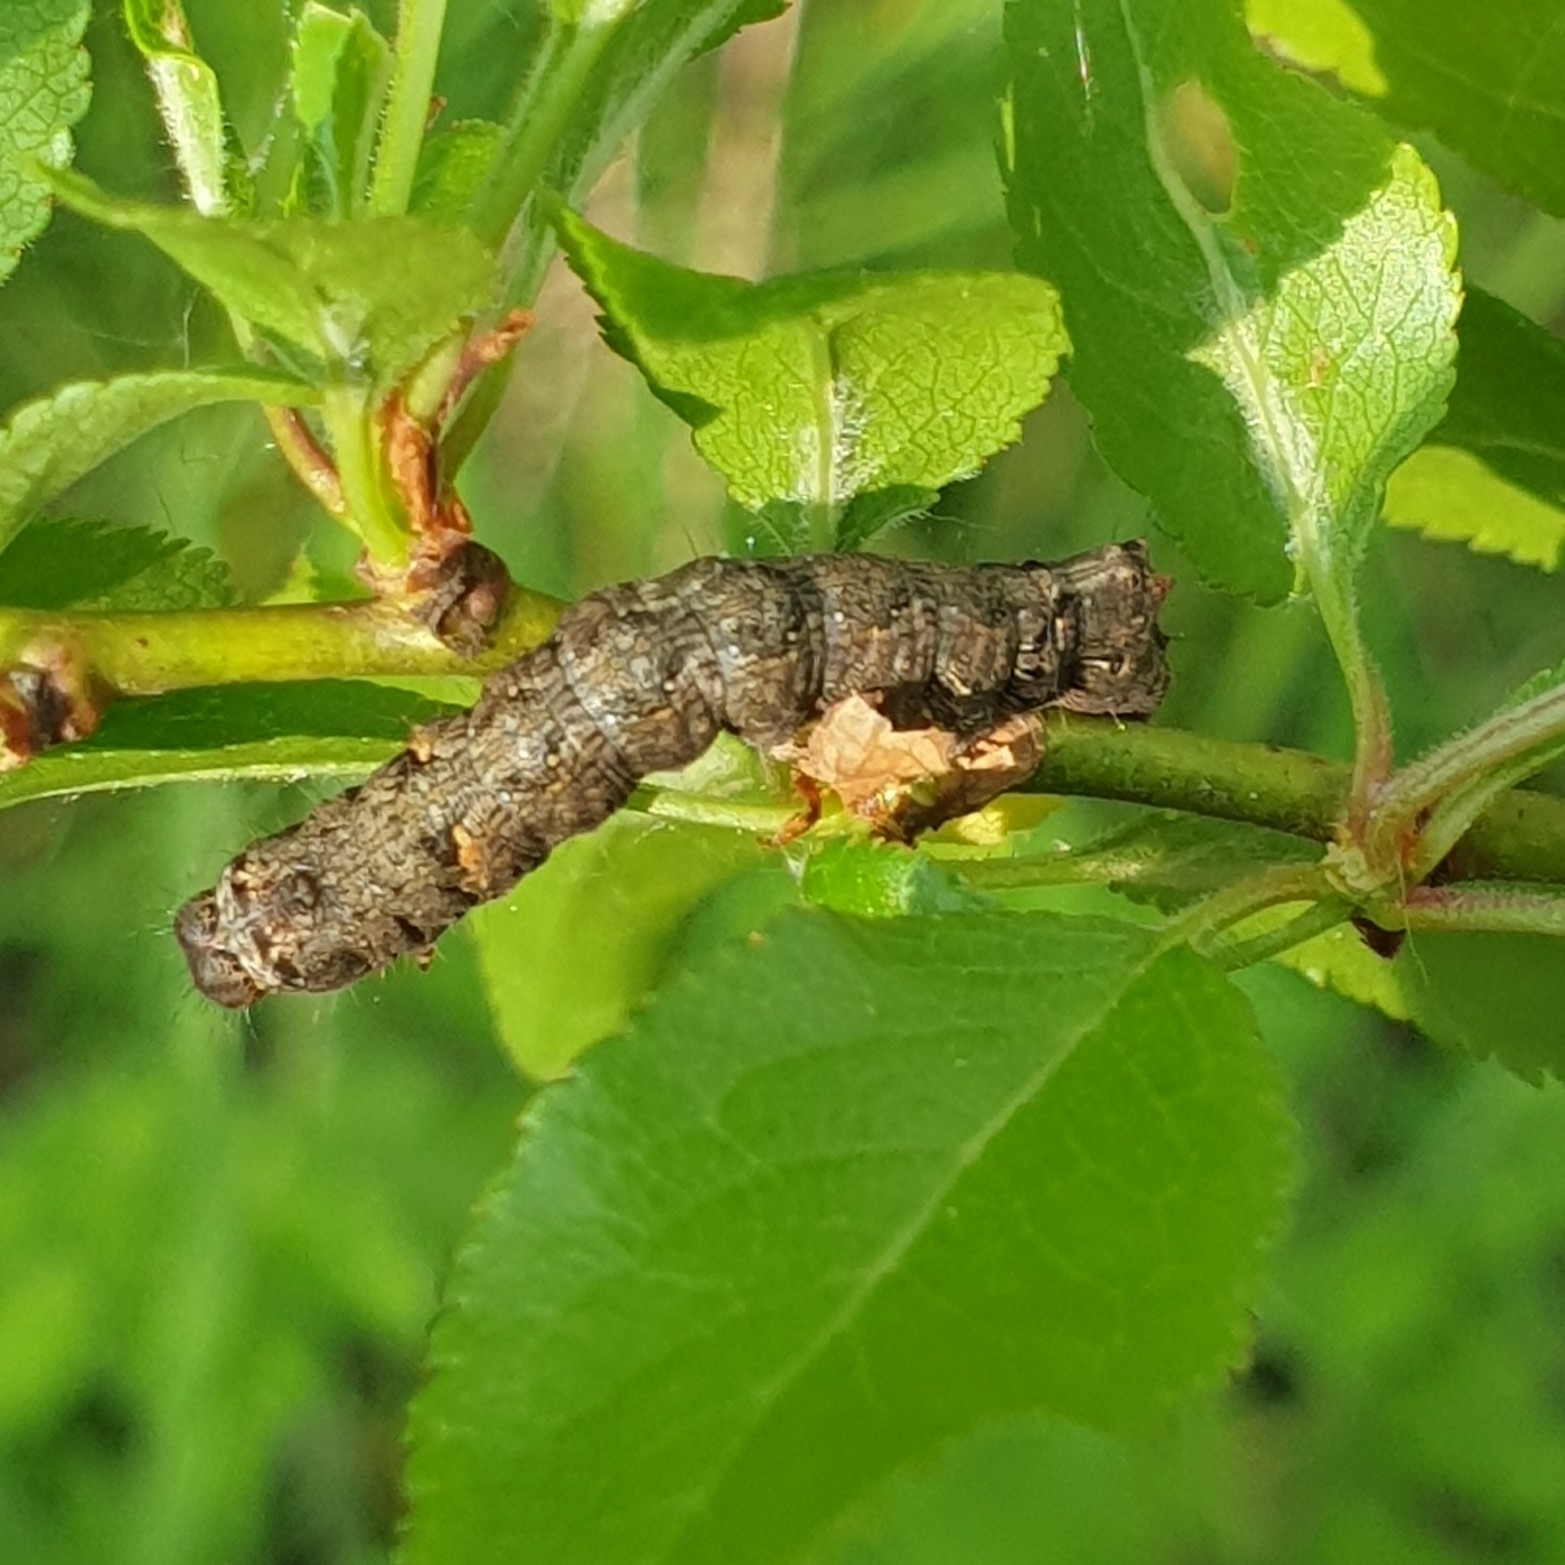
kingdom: Animalia
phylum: Arthropoda
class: Insecta
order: Lepidoptera
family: Noctuidae
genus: Allophyes
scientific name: Allophyes oxyacanthae
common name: Green-brindled crescent
